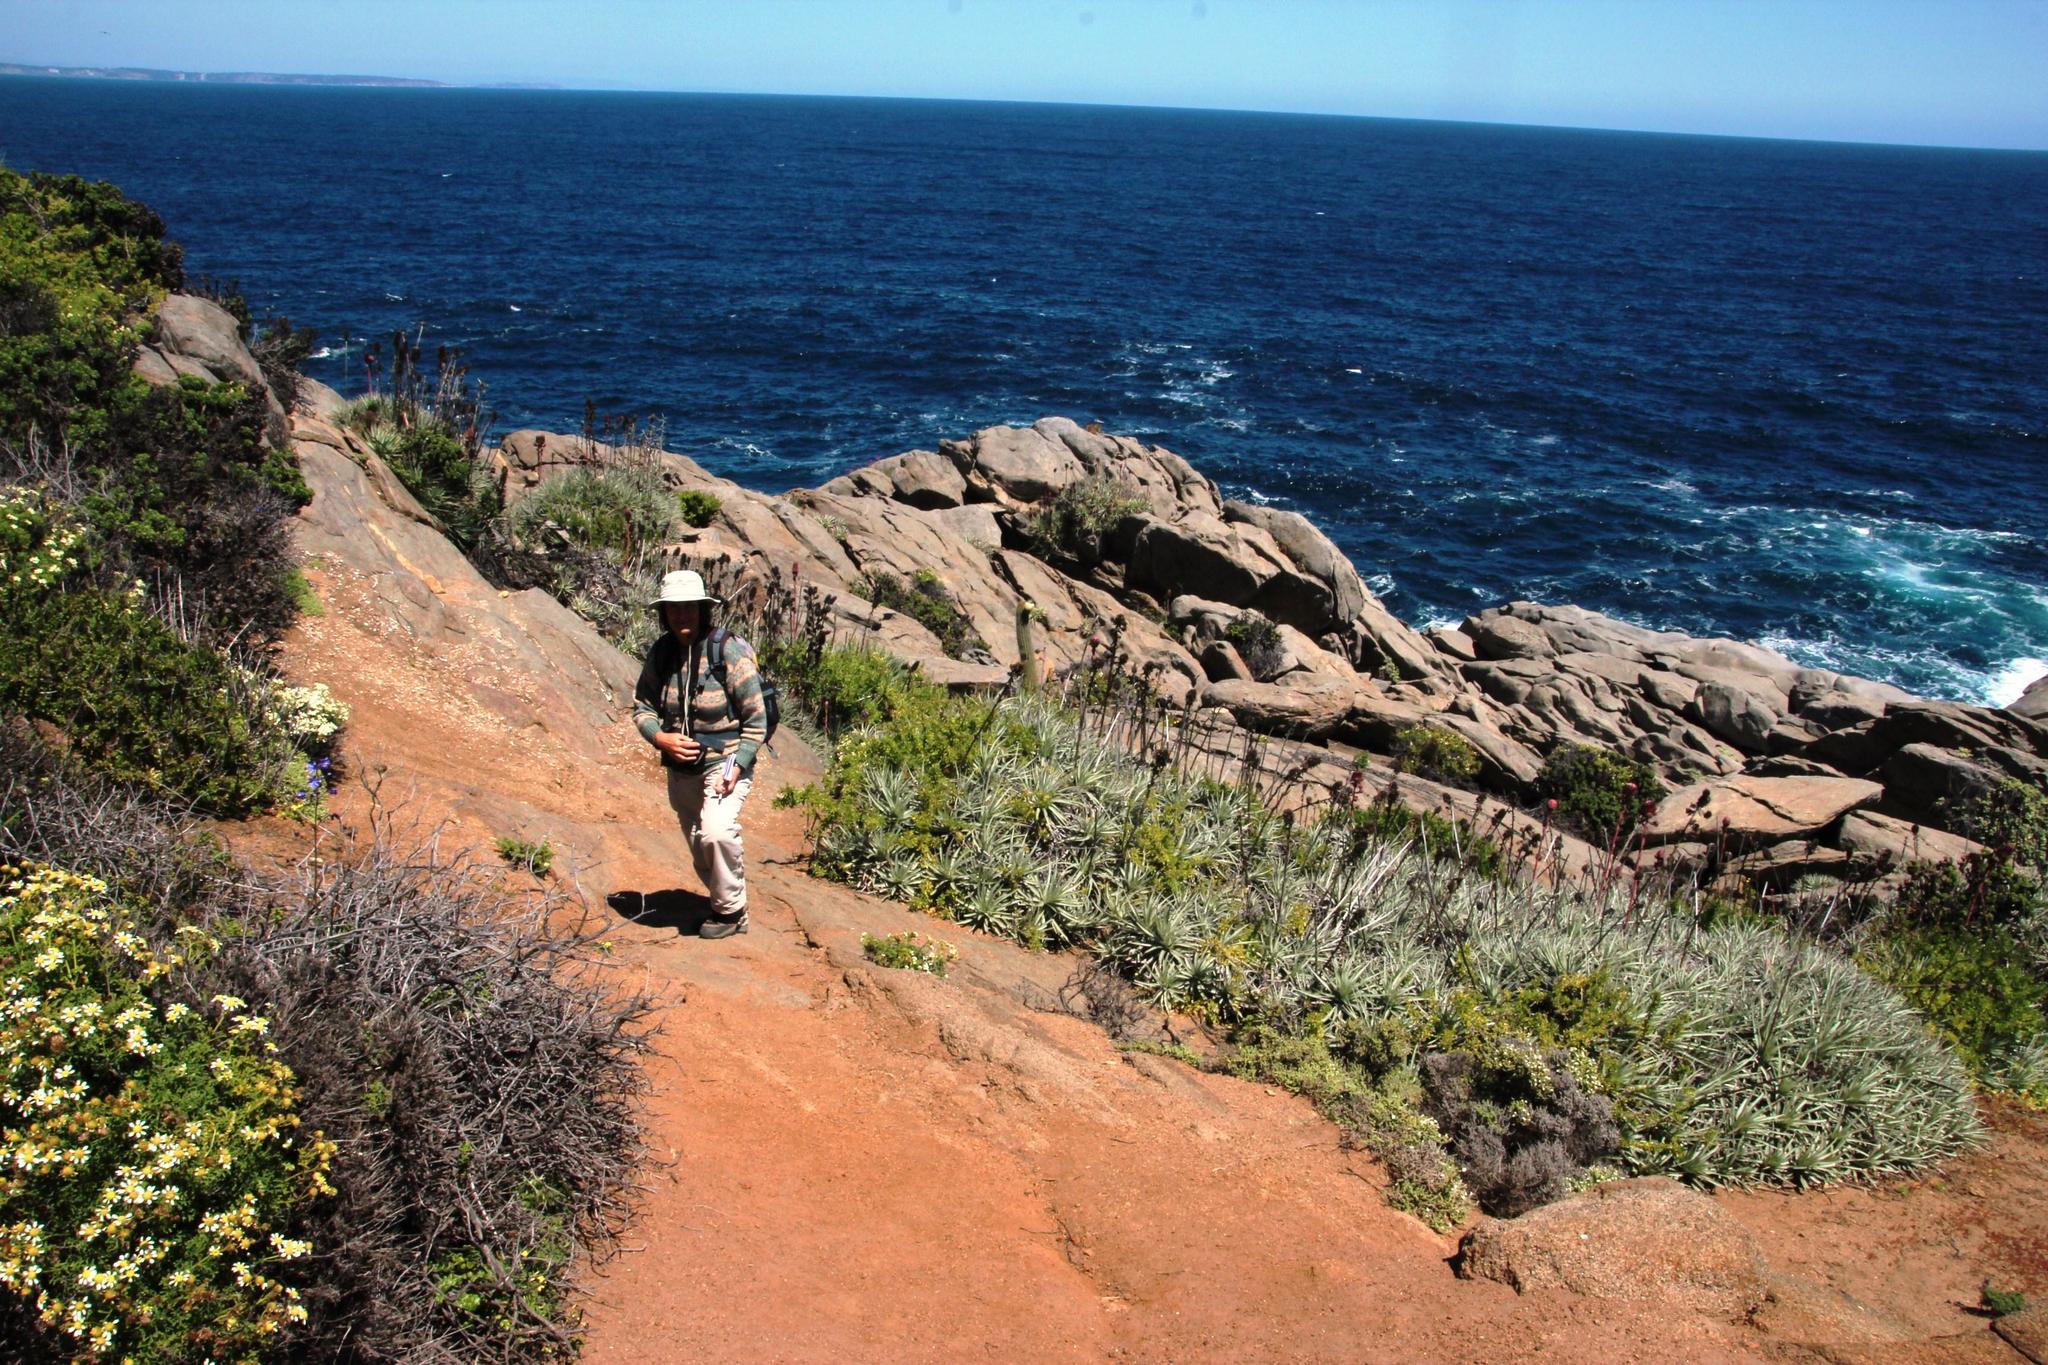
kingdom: Plantae
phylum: Tracheophyta
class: Liliopsida
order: Poales
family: Bromeliaceae
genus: Puya
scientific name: Puya venusta
